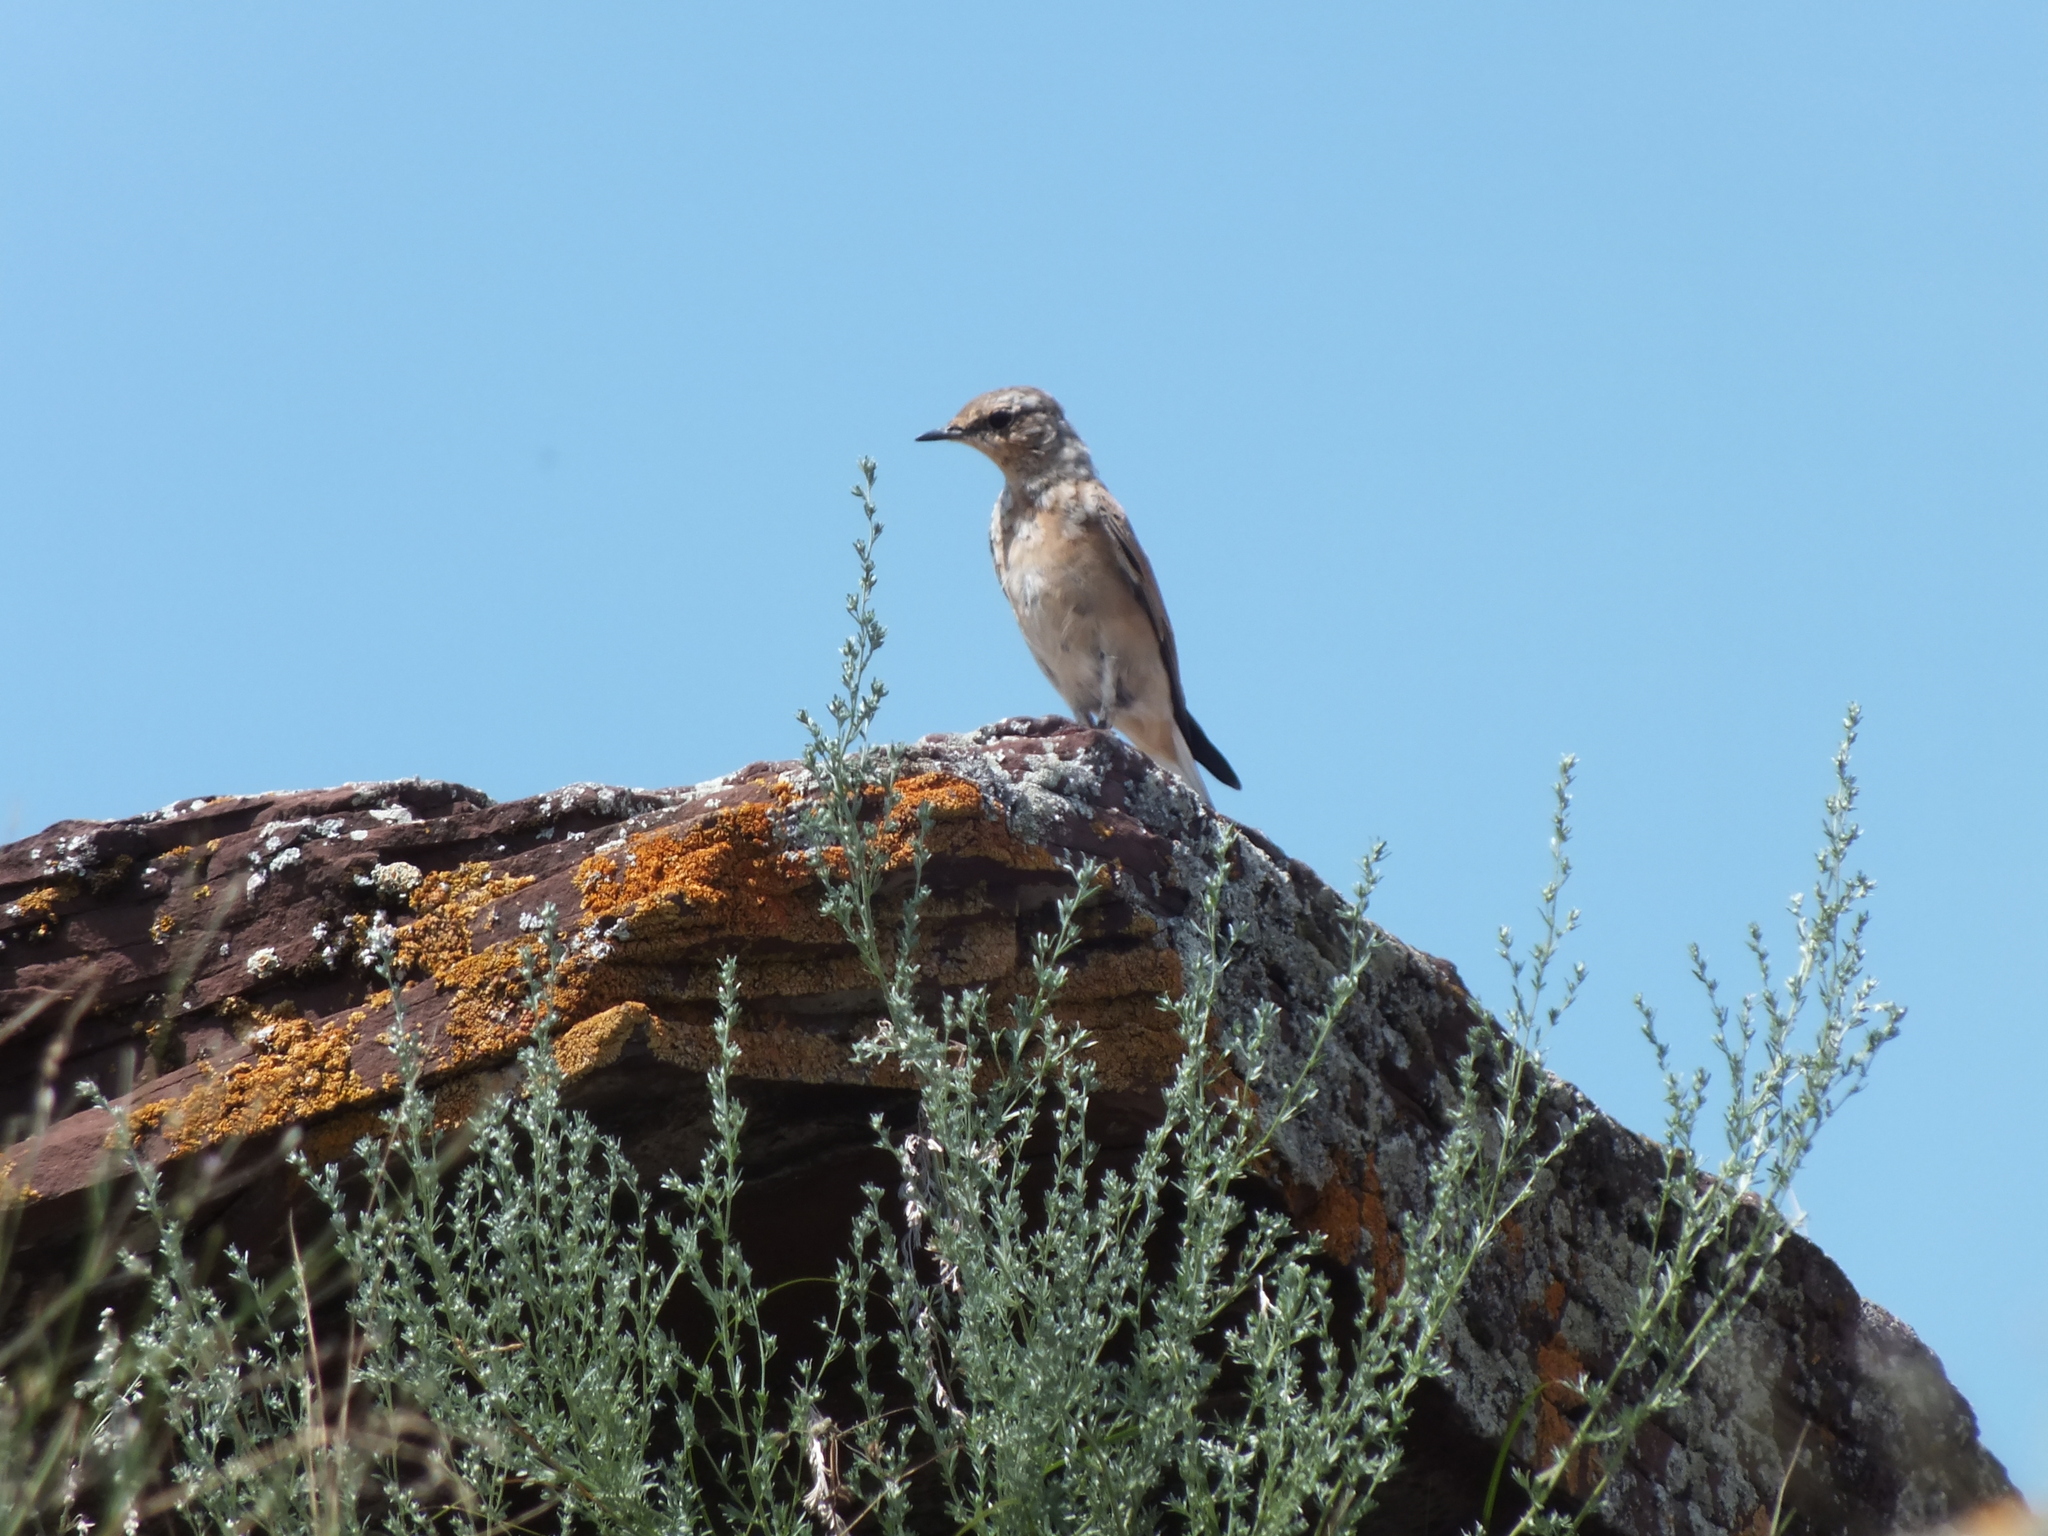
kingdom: Animalia
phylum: Chordata
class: Aves
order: Passeriformes
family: Muscicapidae
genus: Oenanthe
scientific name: Oenanthe oenanthe
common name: Northern wheatear
